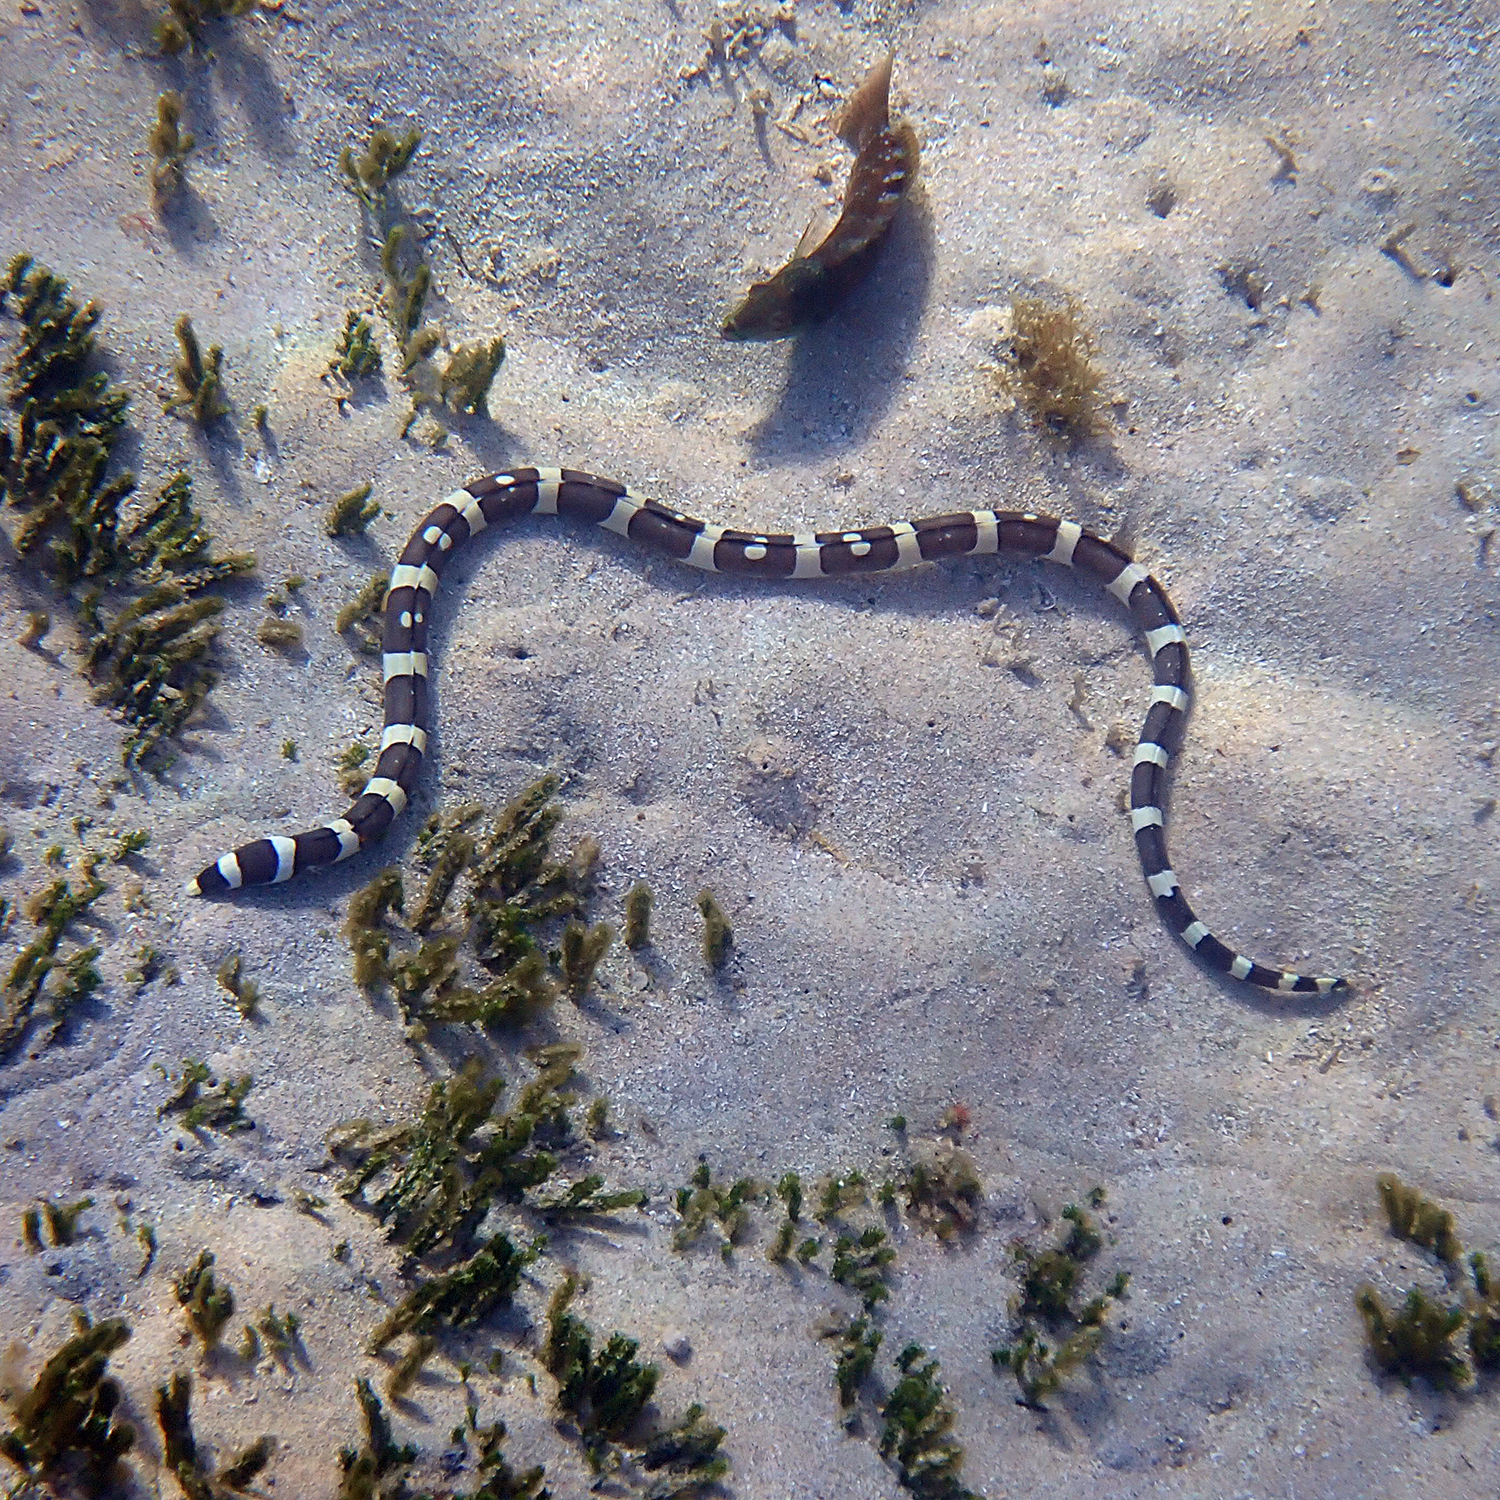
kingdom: Animalia
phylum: Chordata
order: Anguilliformes
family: Ophichthidae
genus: Leiuranus
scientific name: Leiuranus versicolor
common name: Convict snake eel
